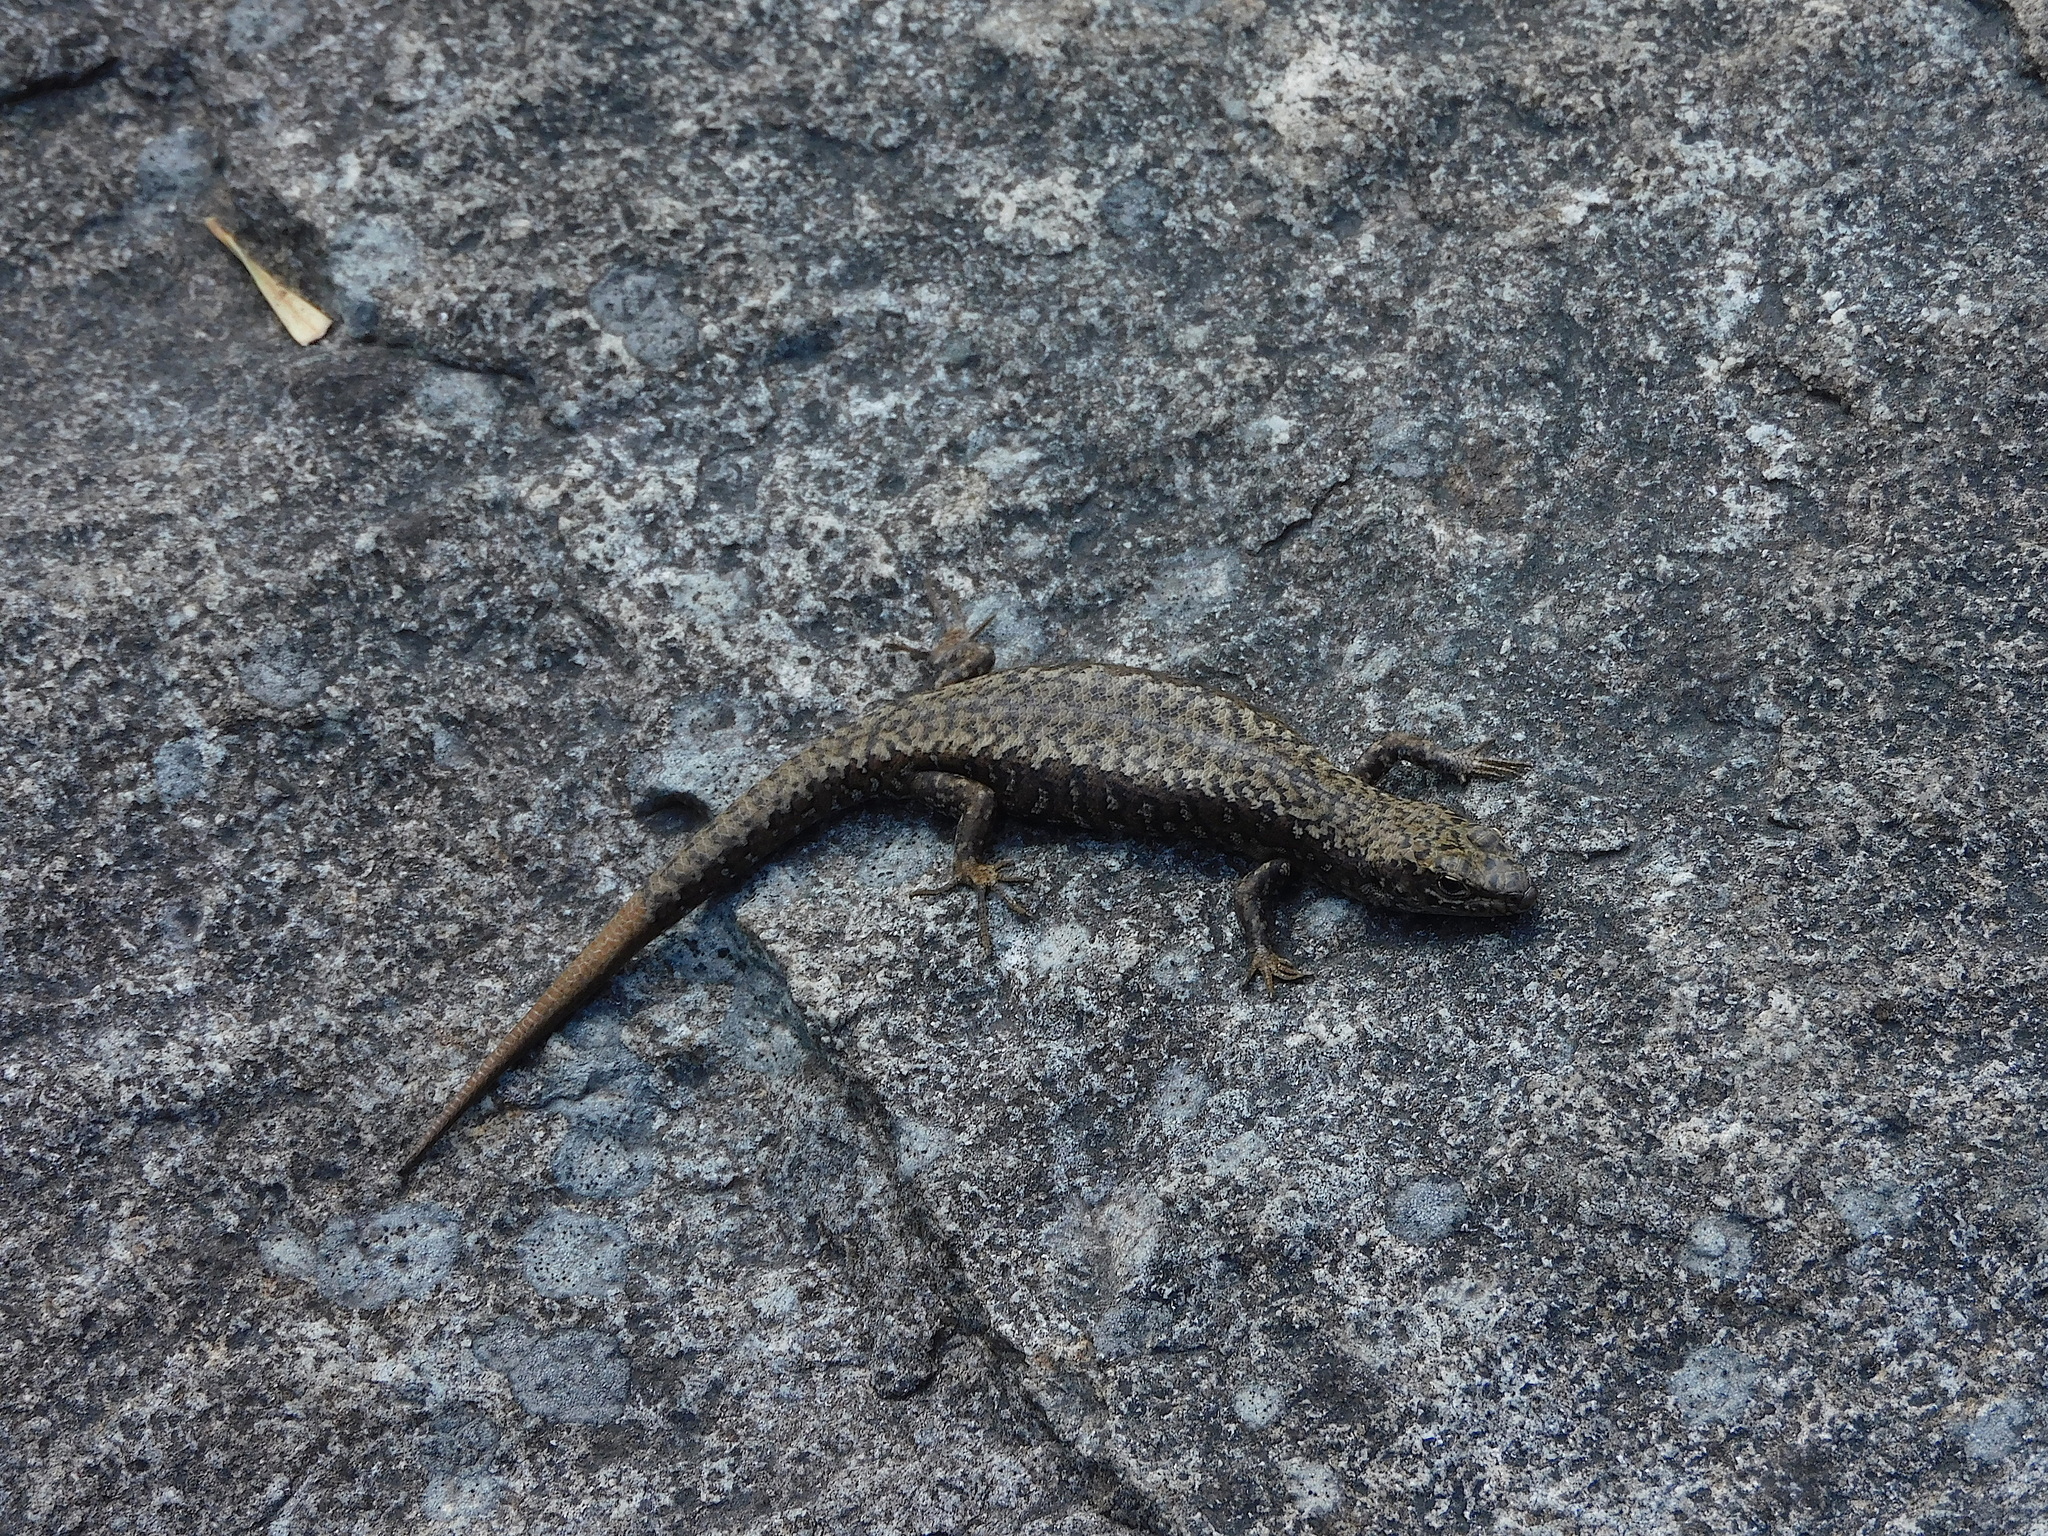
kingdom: Animalia
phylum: Chordata
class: Squamata
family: Scincidae
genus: Carinascincus
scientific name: Carinascincus ocellatus
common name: Ocellated cool-skink
